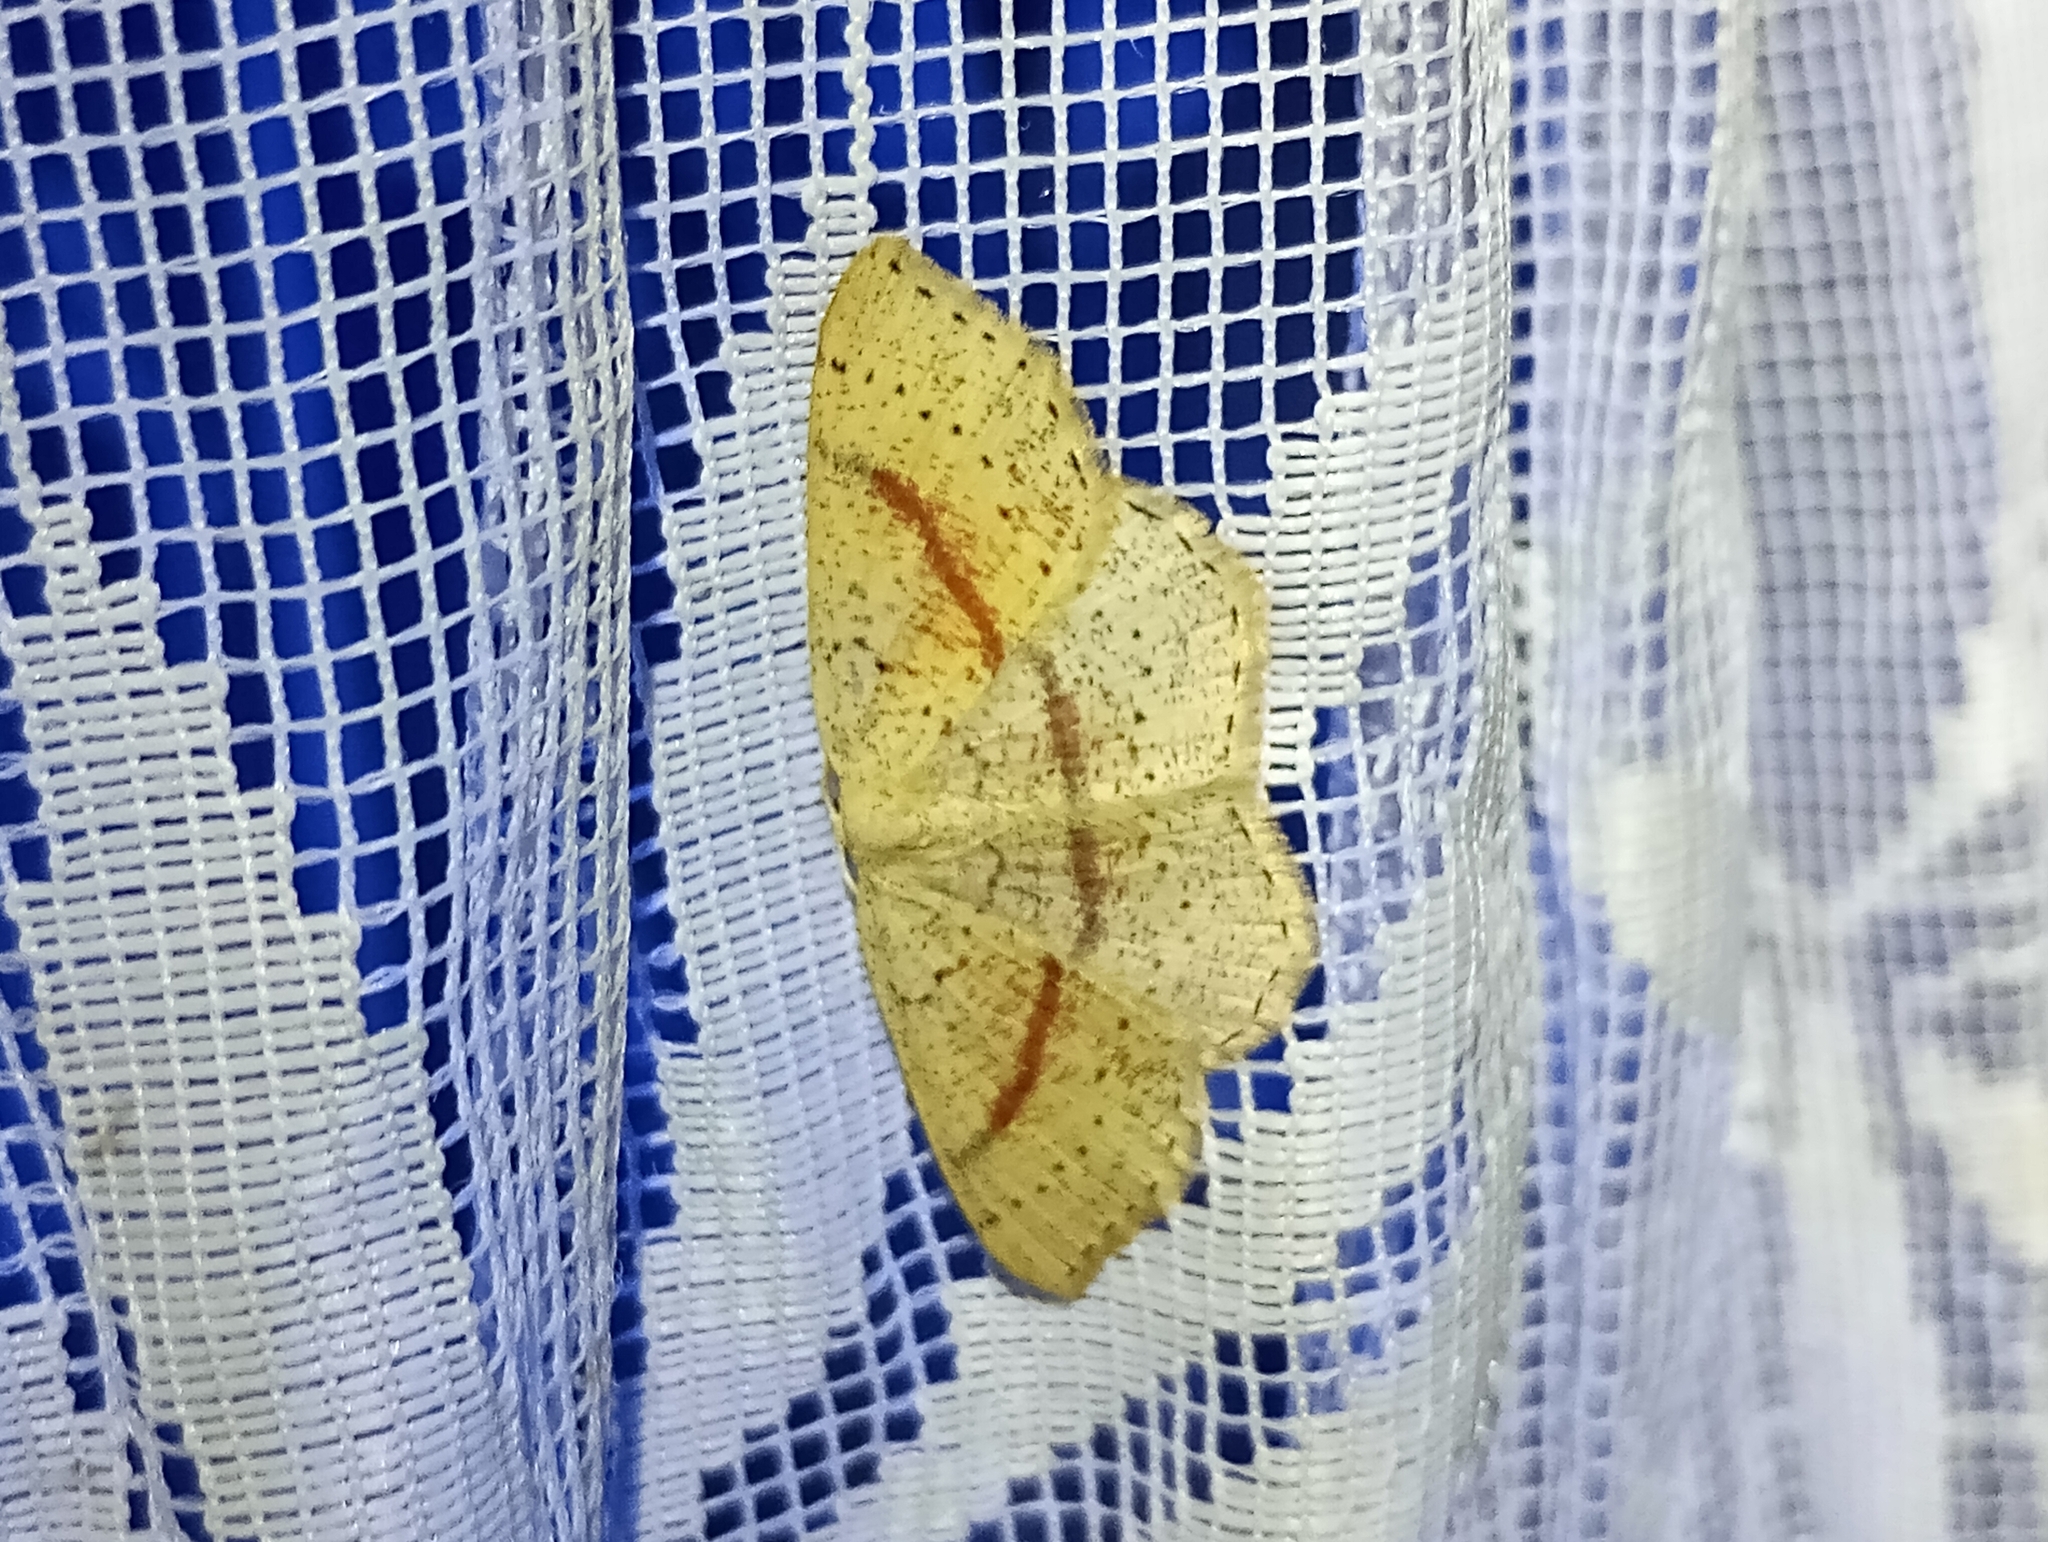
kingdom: Animalia
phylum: Arthropoda
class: Insecta
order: Lepidoptera
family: Geometridae
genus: Cyclophora
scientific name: Cyclophora punctaria
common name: Maiden's blush
